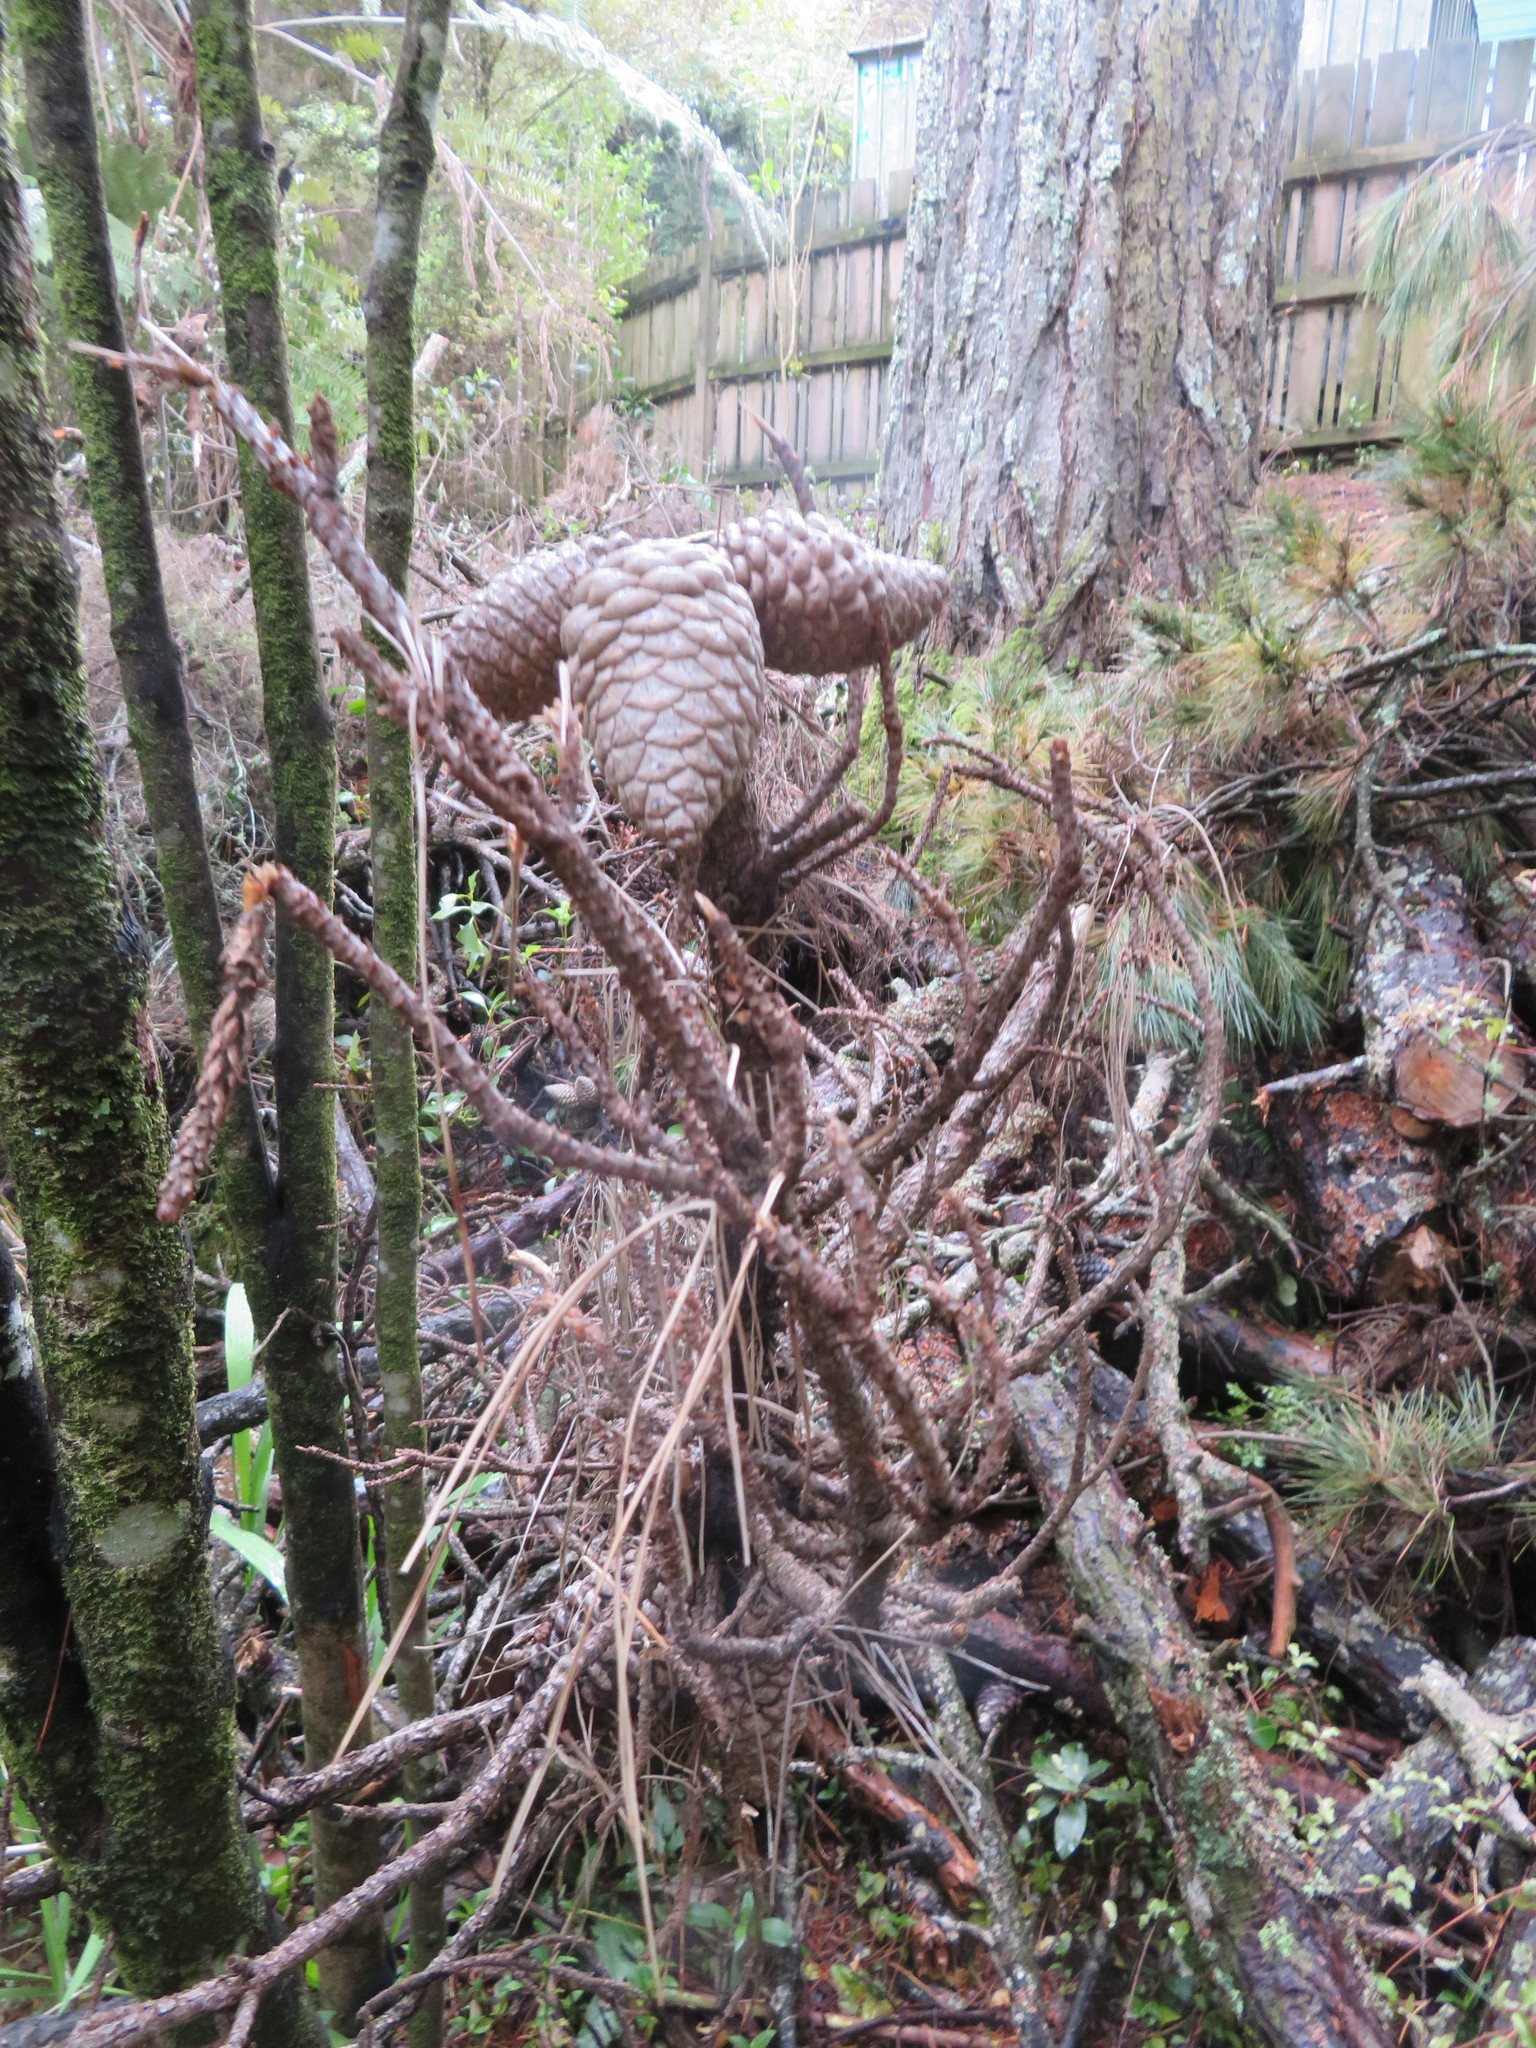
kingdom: Plantae
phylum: Tracheophyta
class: Pinopsida
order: Pinales
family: Pinaceae
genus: Pinus
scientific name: Pinus radiata
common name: Monterey pine
